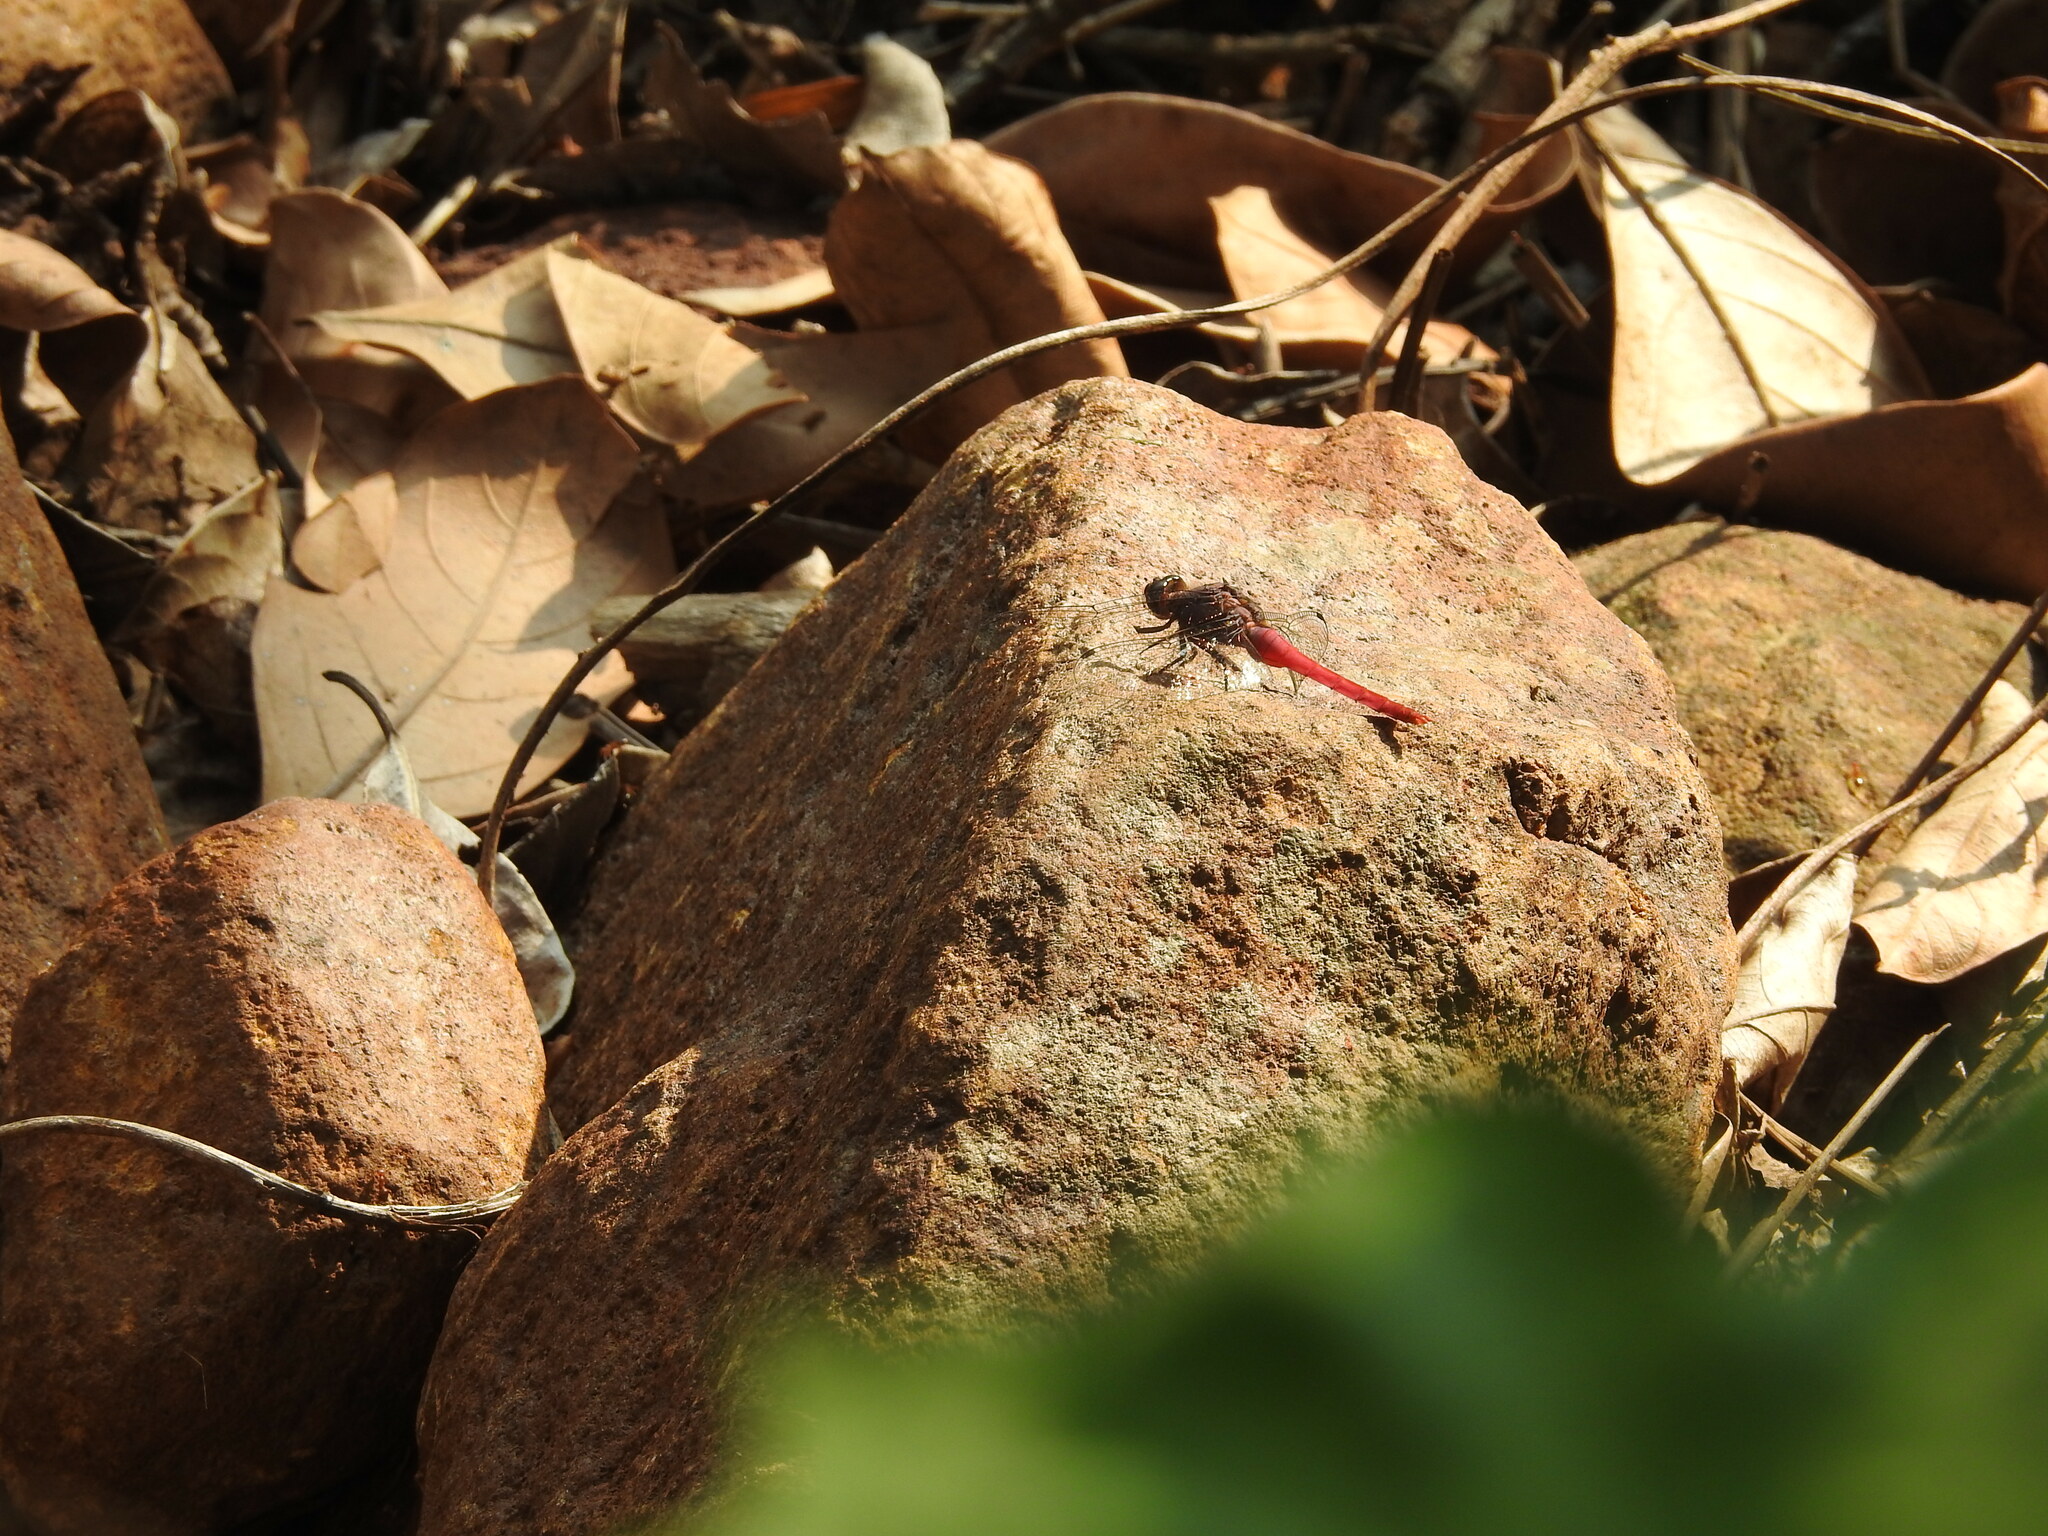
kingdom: Animalia
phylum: Arthropoda
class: Insecta
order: Odonata
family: Libellulidae
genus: Orthetrum
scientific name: Orthetrum pruinosum
